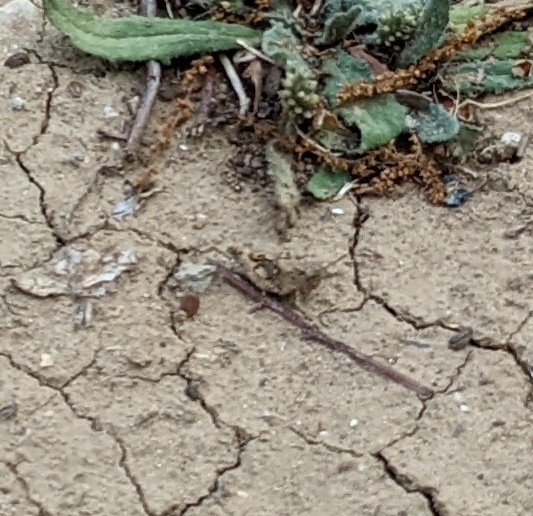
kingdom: Animalia
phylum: Arthropoda
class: Insecta
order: Orthoptera
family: Tetrigidae
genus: Paratettix
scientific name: Paratettix mexicanus
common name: Mexican pygmy grasshopper
